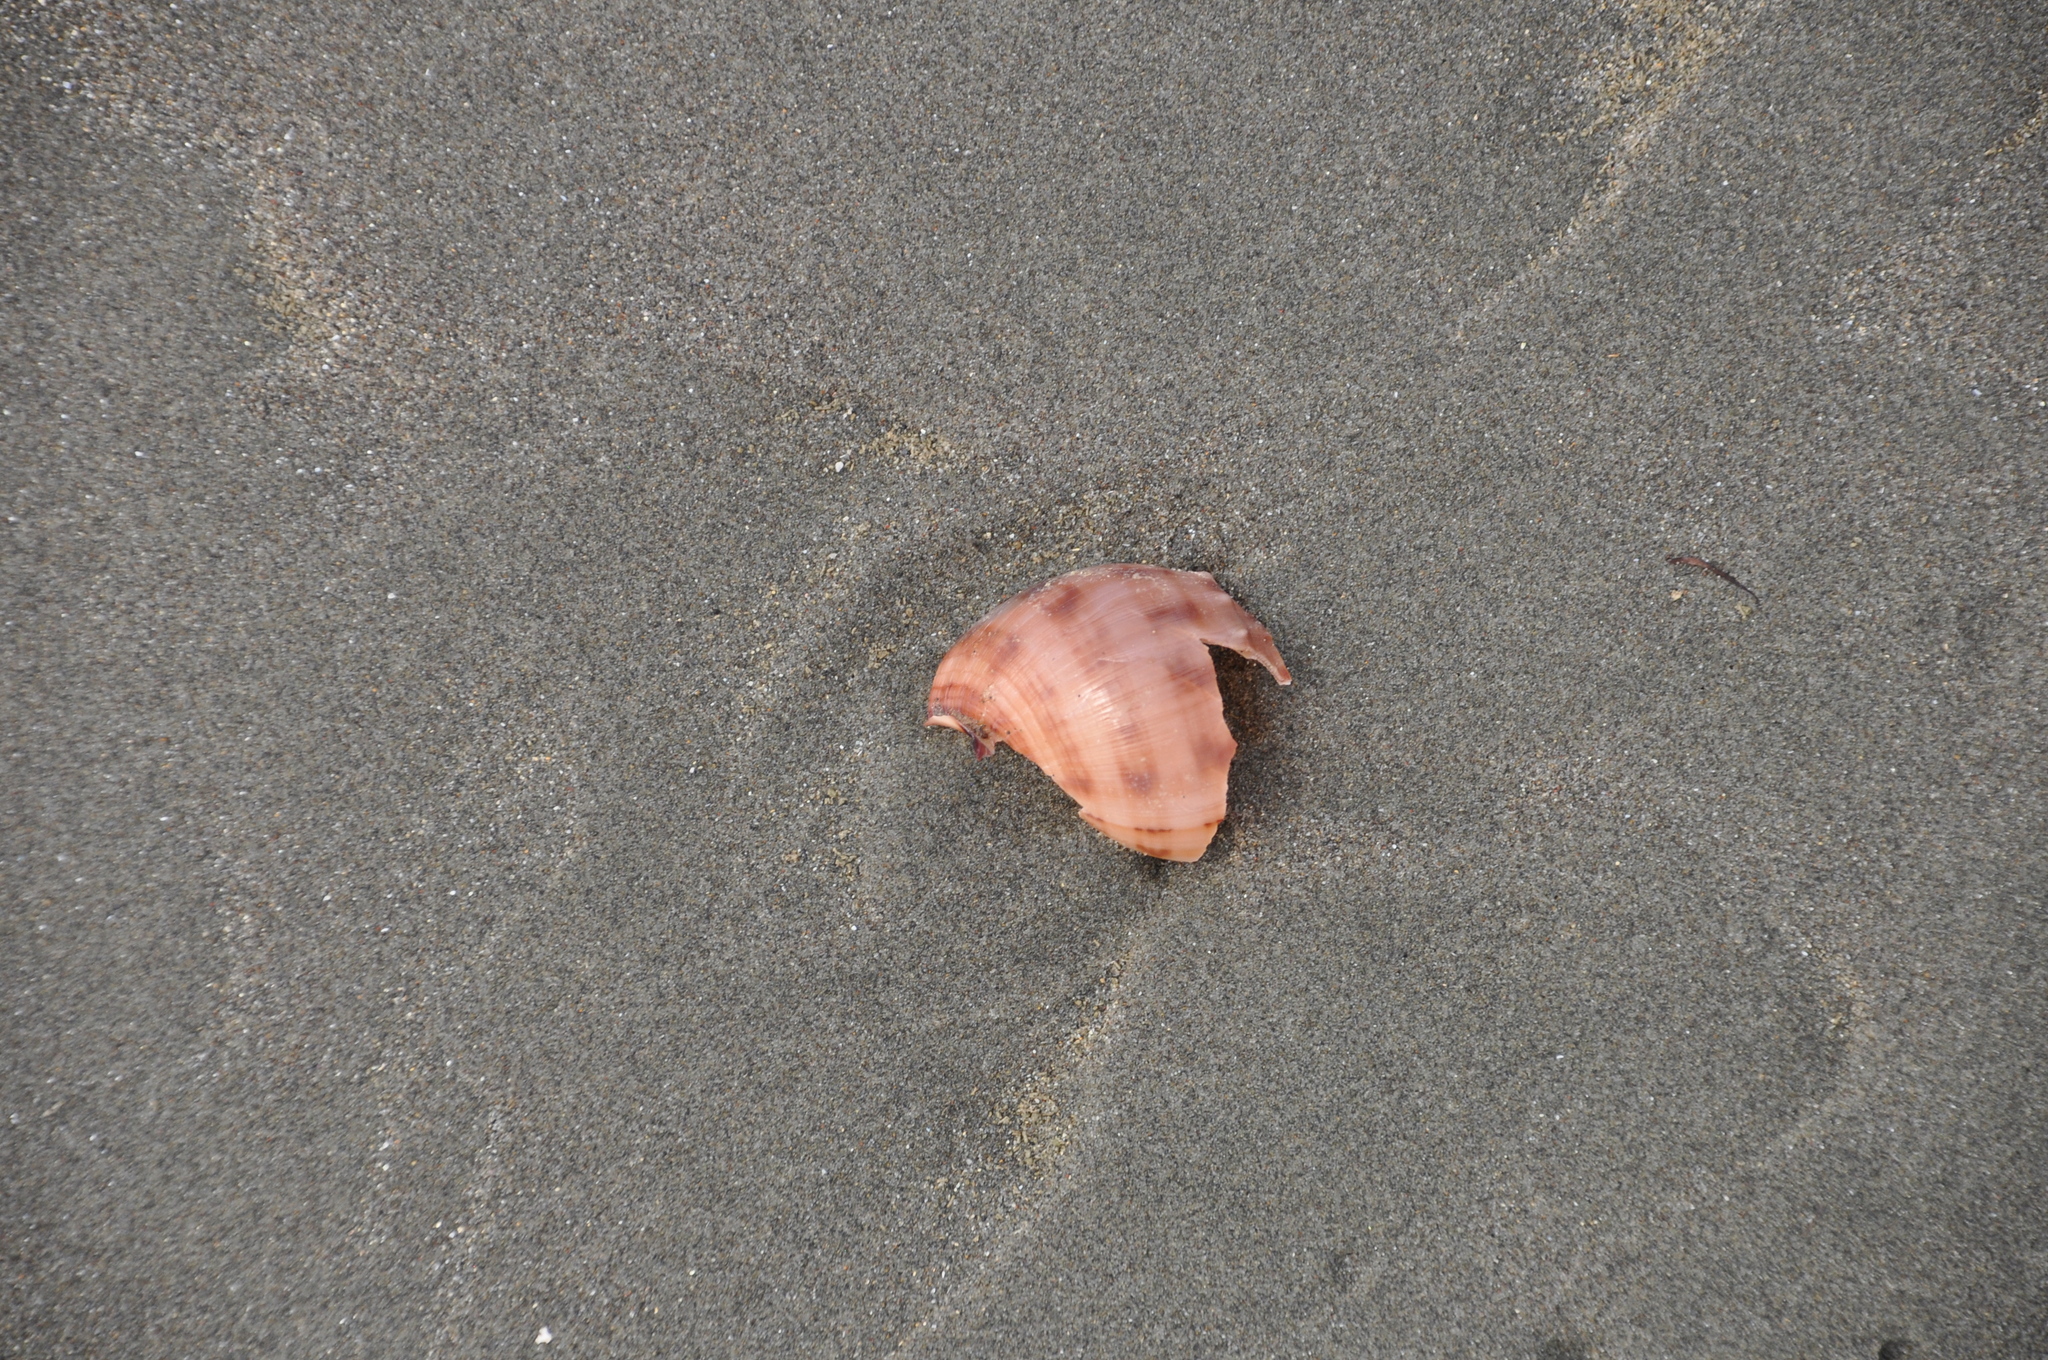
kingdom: Animalia
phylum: Mollusca
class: Gastropoda
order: Littorinimorpha
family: Cassidae
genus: Semicassis
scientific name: Semicassis pyrum
